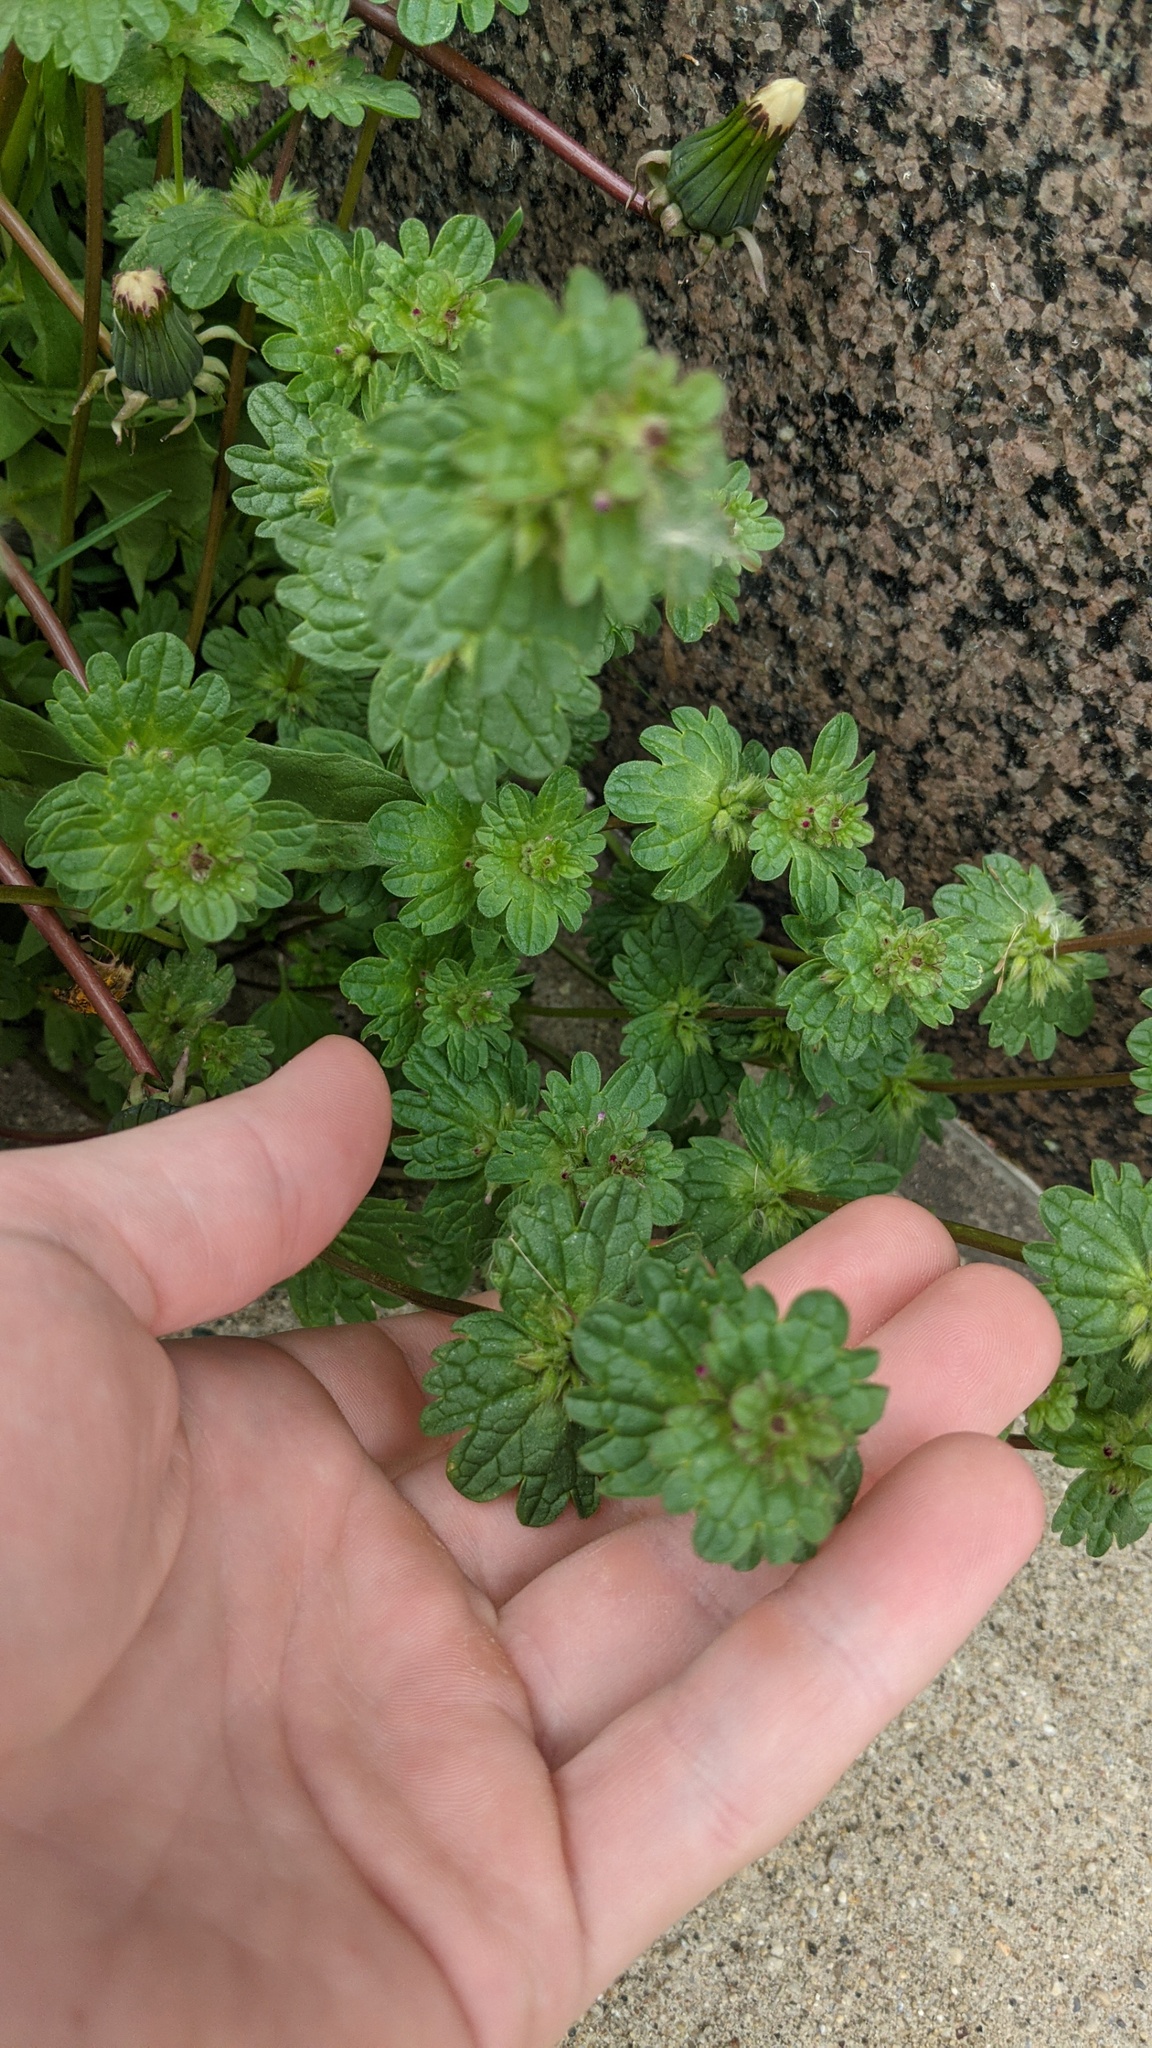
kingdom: Plantae
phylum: Tracheophyta
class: Magnoliopsida
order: Lamiales
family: Lamiaceae
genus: Lamium
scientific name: Lamium amplexicaule
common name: Henbit dead-nettle
